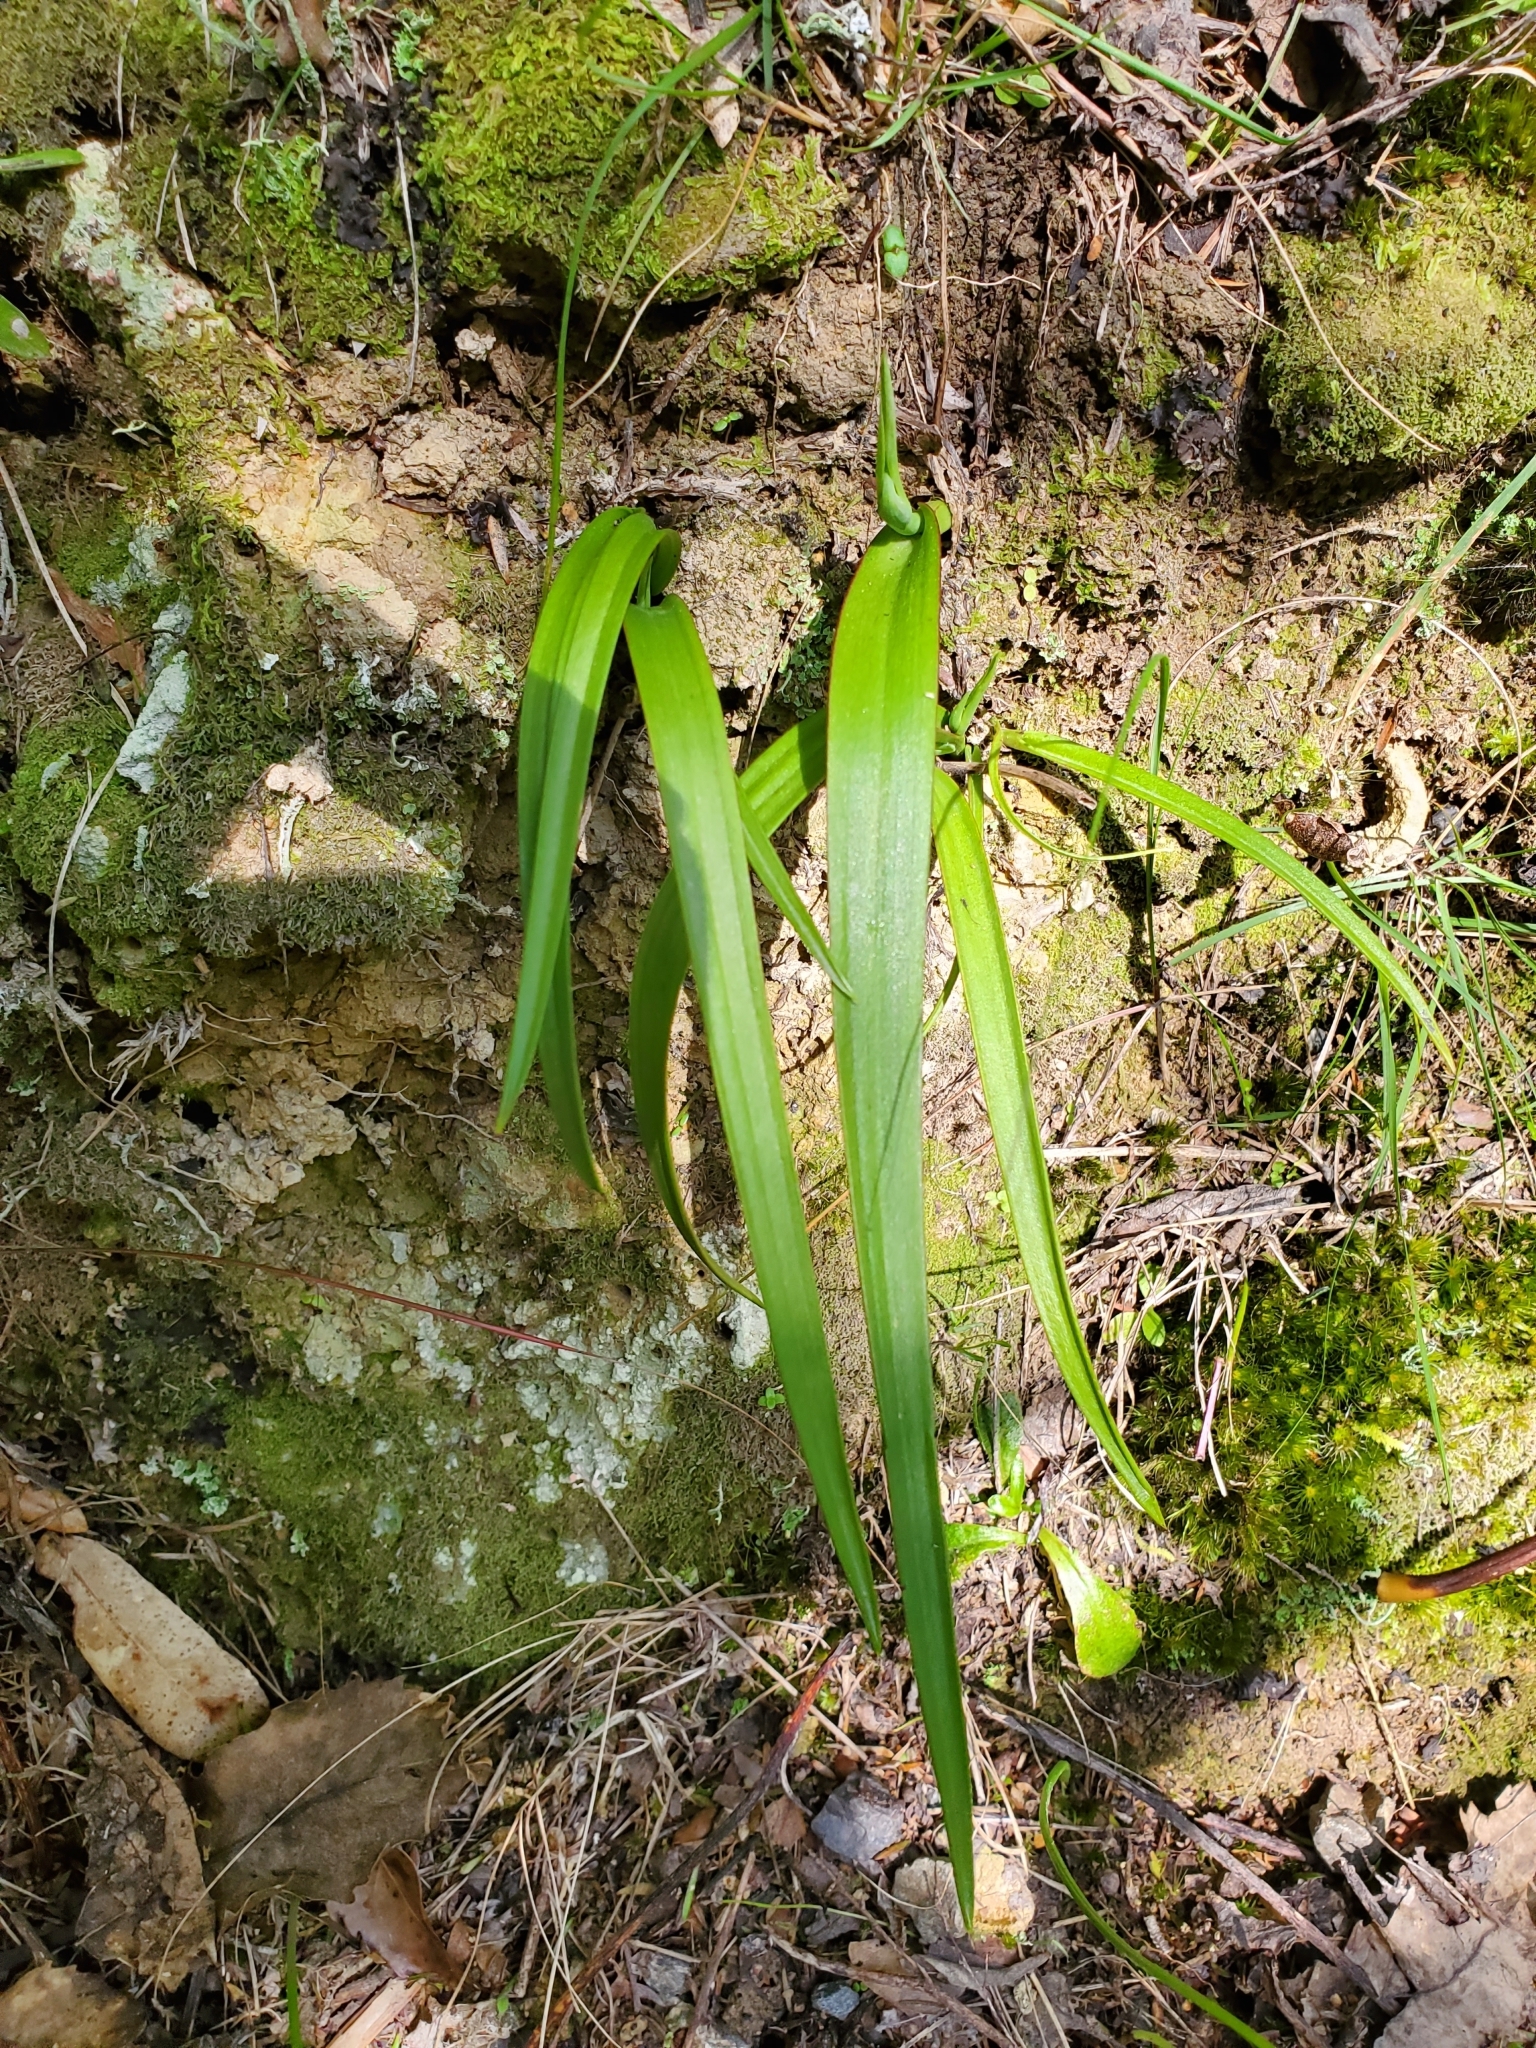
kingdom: Plantae
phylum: Tracheophyta
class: Liliopsida
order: Asparagales
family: Orchidaceae
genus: Thelymitra
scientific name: Thelymitra longifolia
